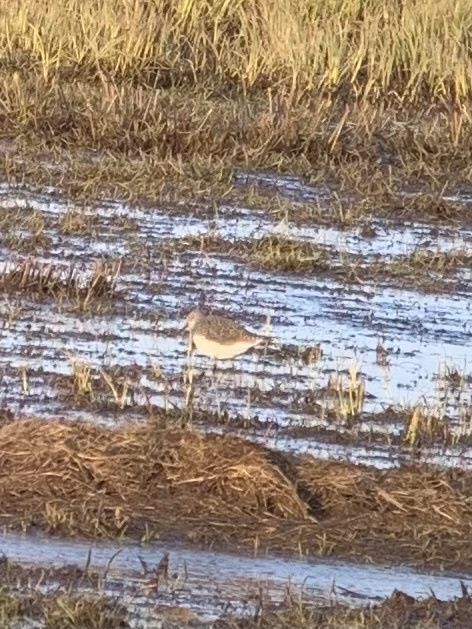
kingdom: Animalia
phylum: Chordata
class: Aves
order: Charadriiformes
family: Scolopacidae
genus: Tringa
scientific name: Tringa ochropus
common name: Green sandpiper
